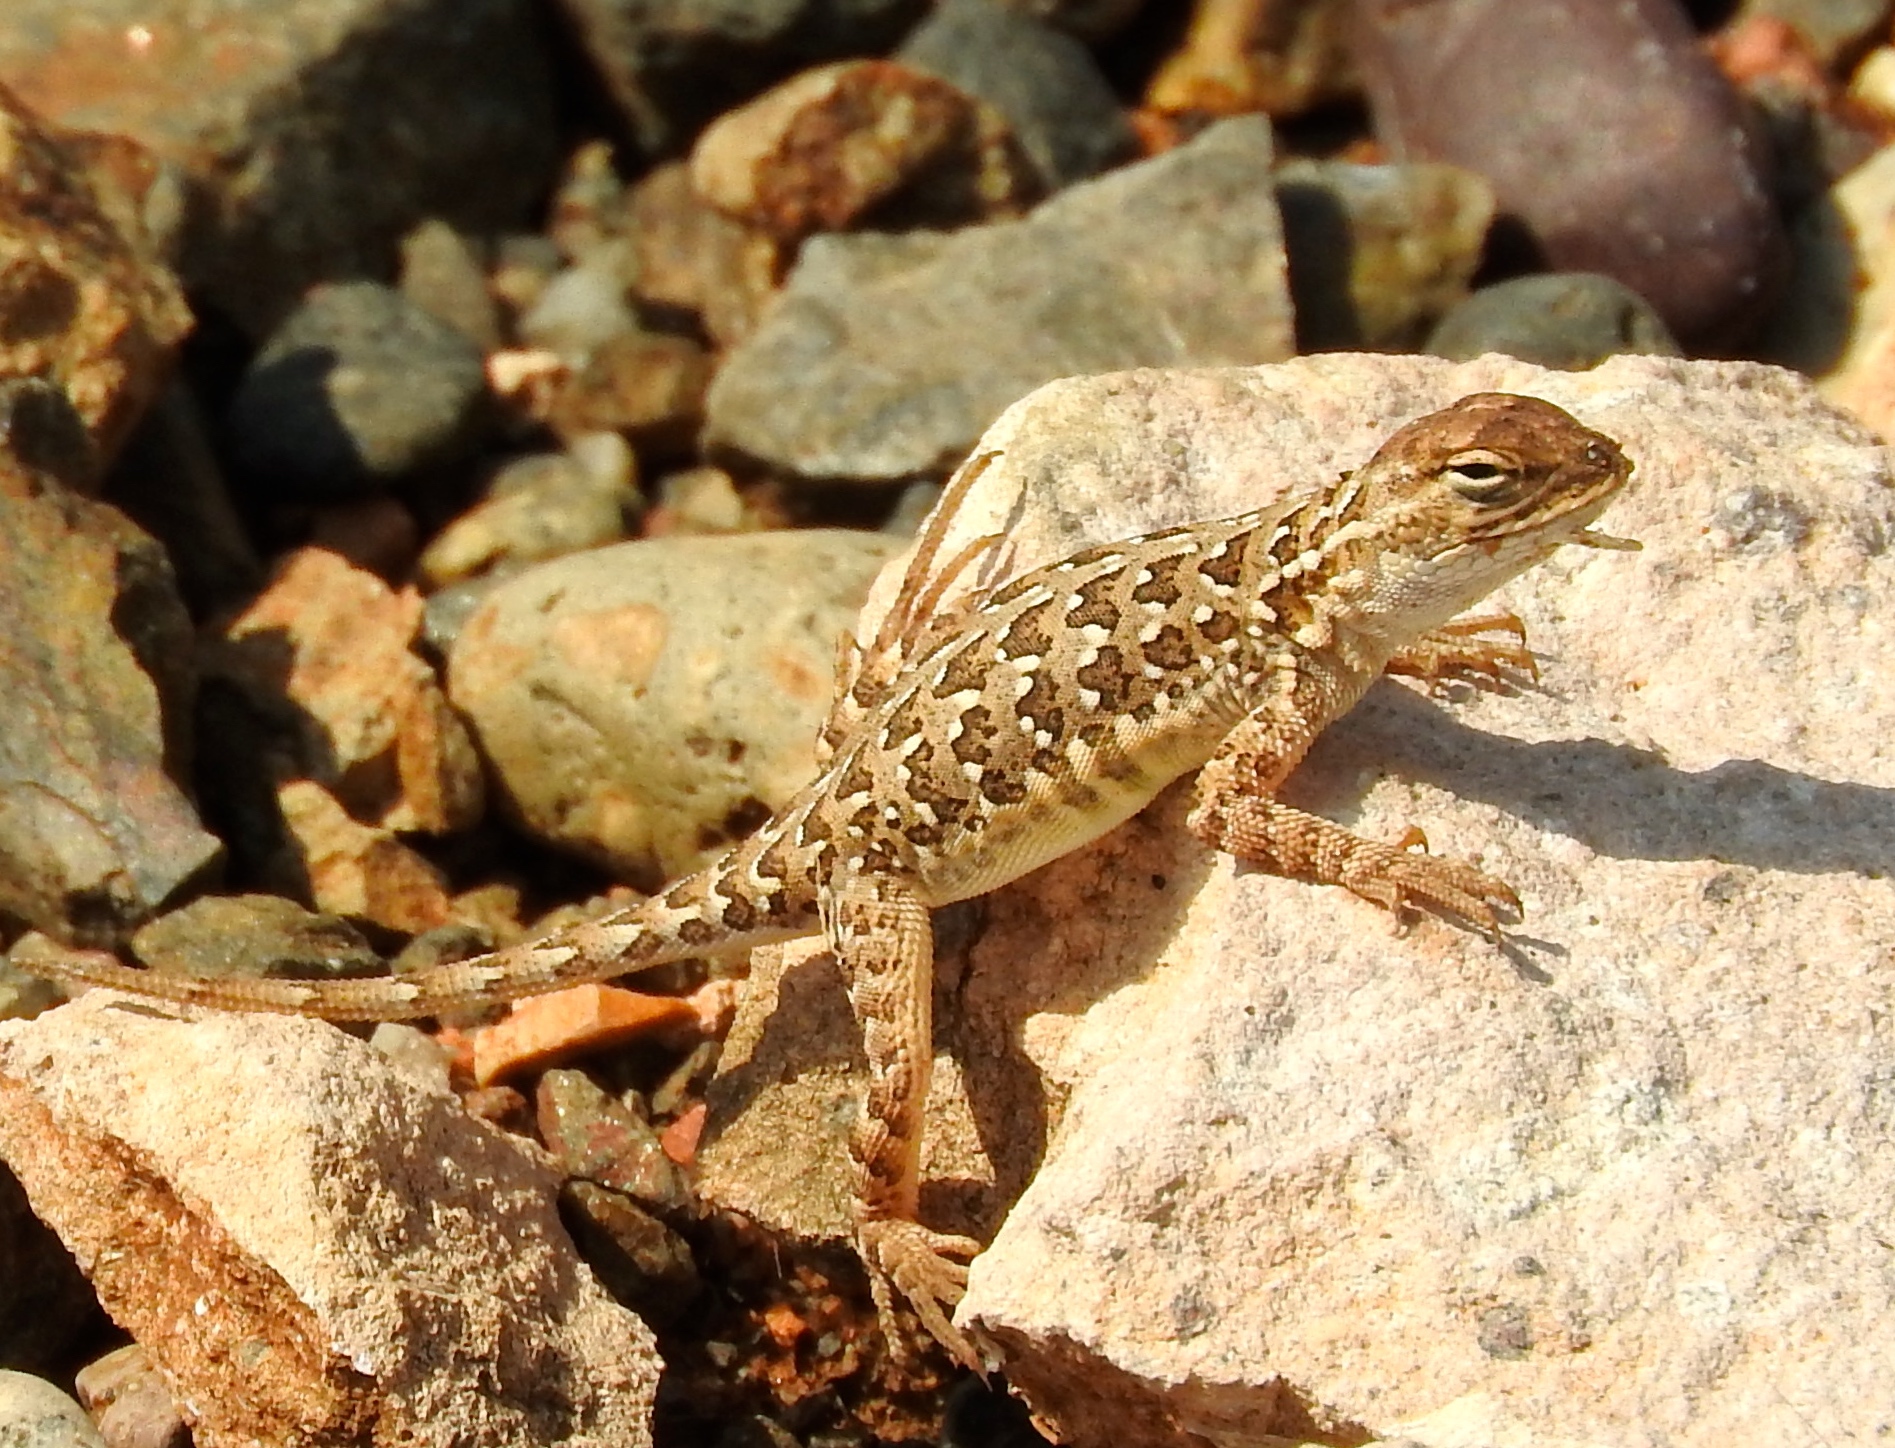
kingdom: Animalia
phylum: Chordata
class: Squamata
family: Phrynosomatidae
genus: Holbrookia
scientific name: Holbrookia elegans
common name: Elegant earless lizard
